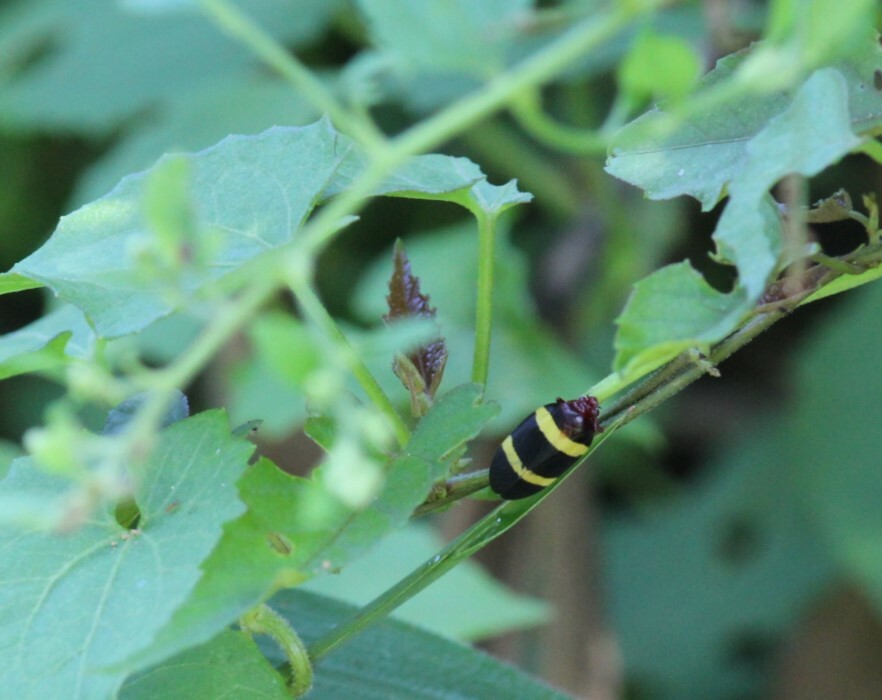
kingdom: Animalia
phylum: Arthropoda
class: Insecta
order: Hemiptera
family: Cercopidae
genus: Sphenorhina
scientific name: Sphenorhina rubra
